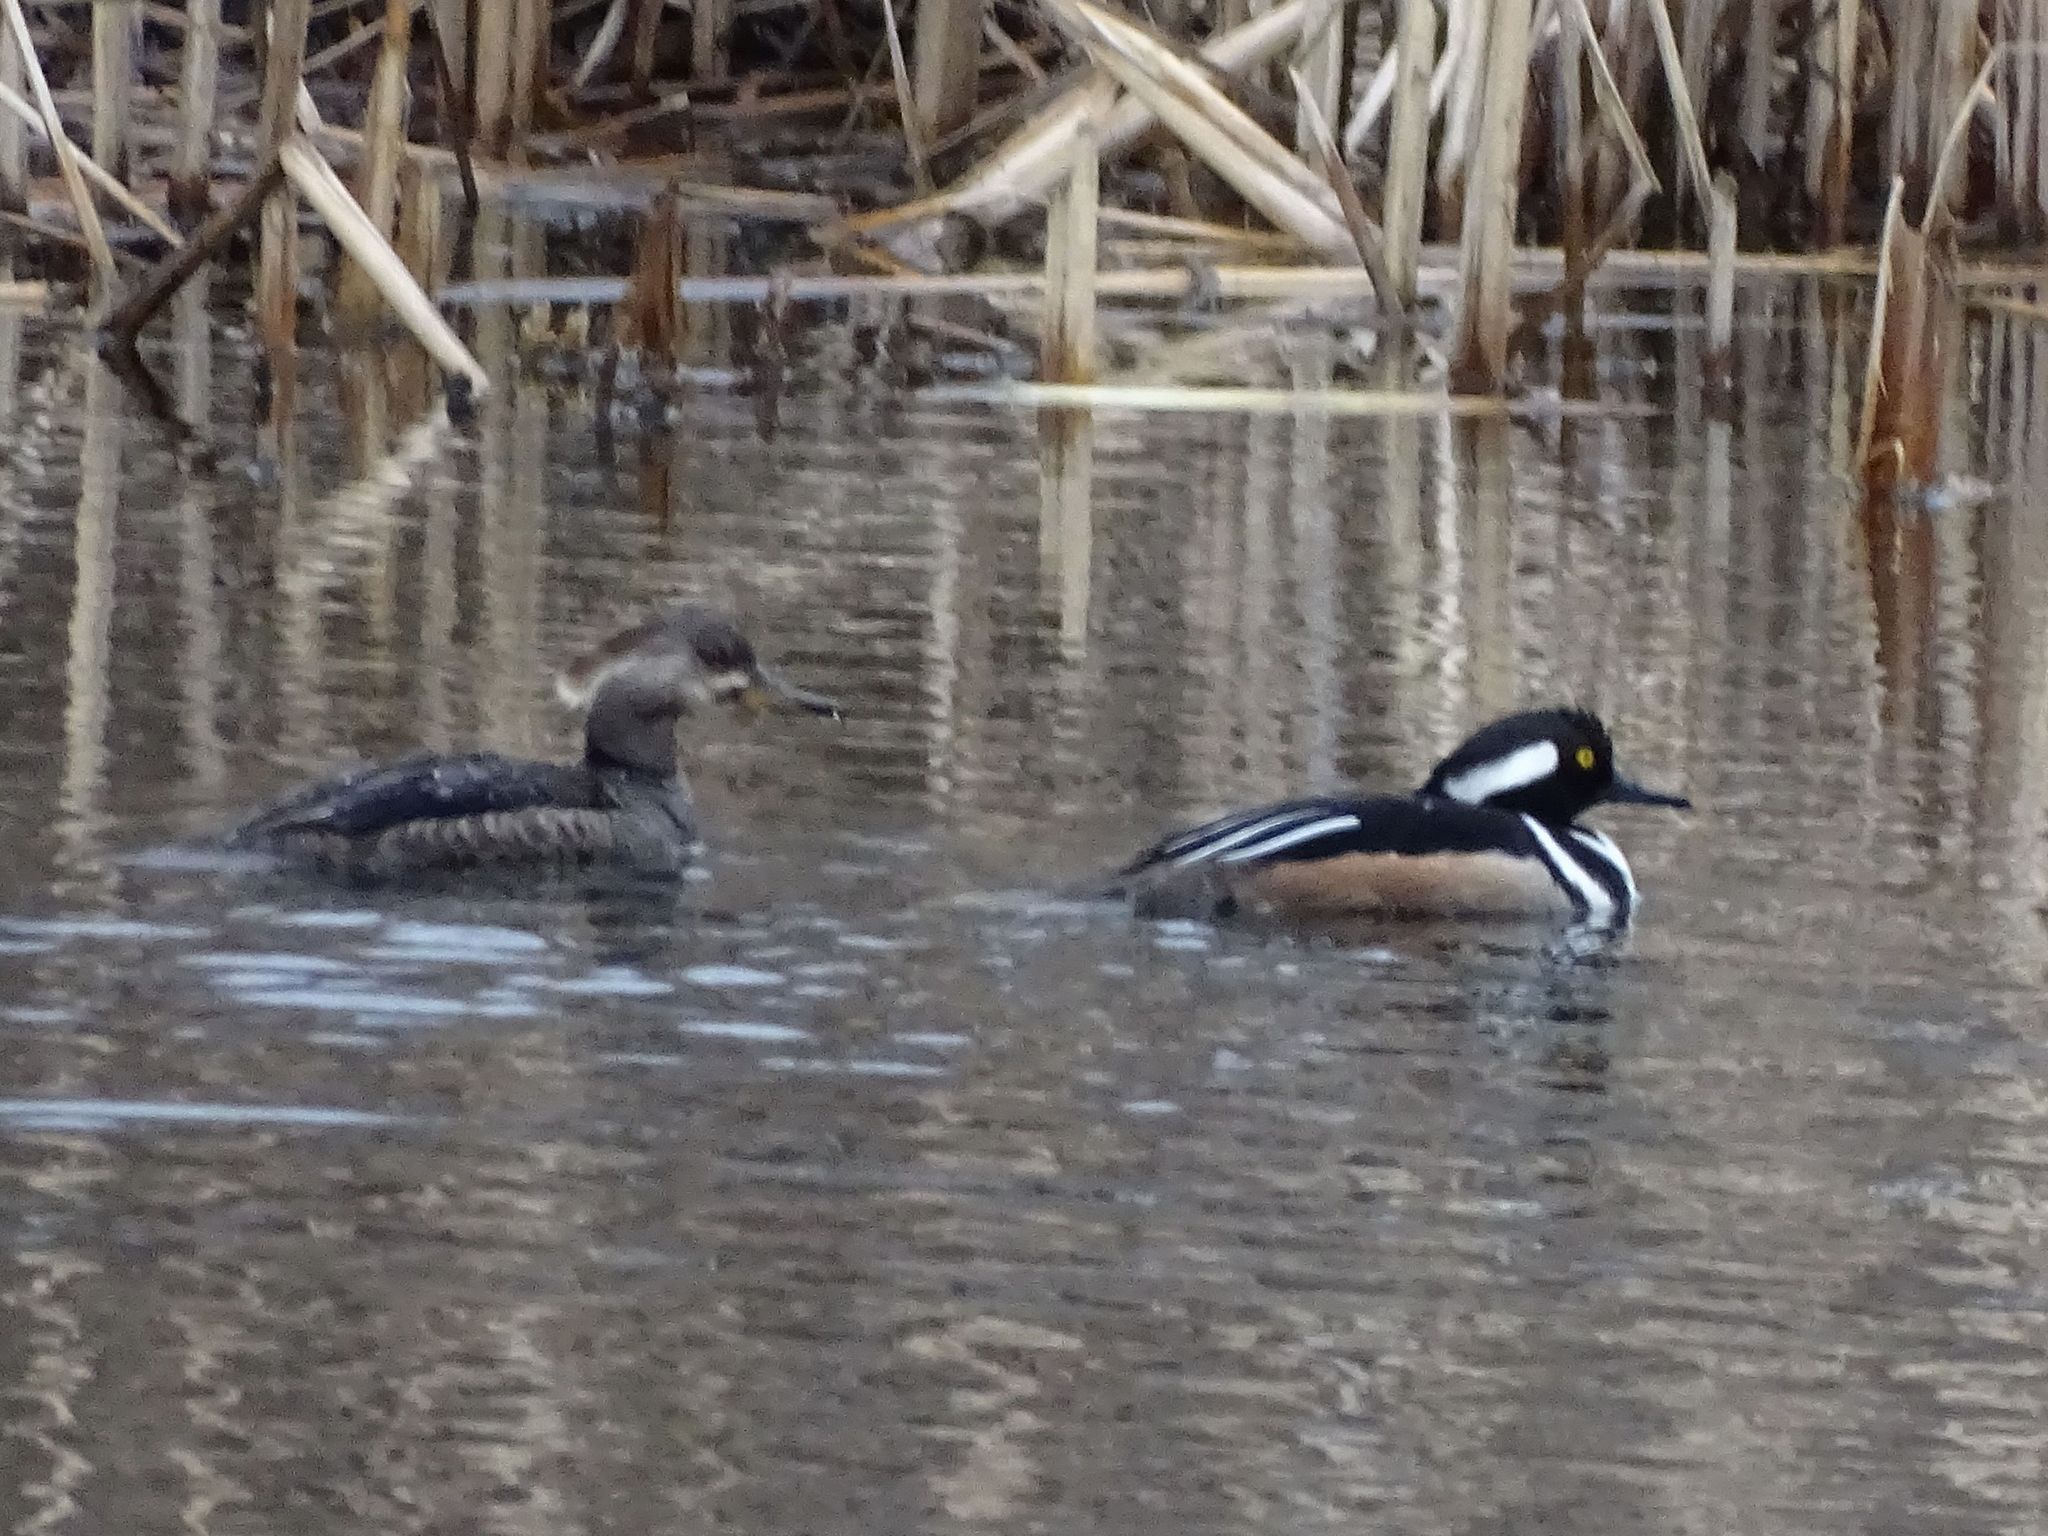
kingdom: Animalia
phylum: Chordata
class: Aves
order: Anseriformes
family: Anatidae
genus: Lophodytes
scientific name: Lophodytes cucullatus
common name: Hooded merganser
